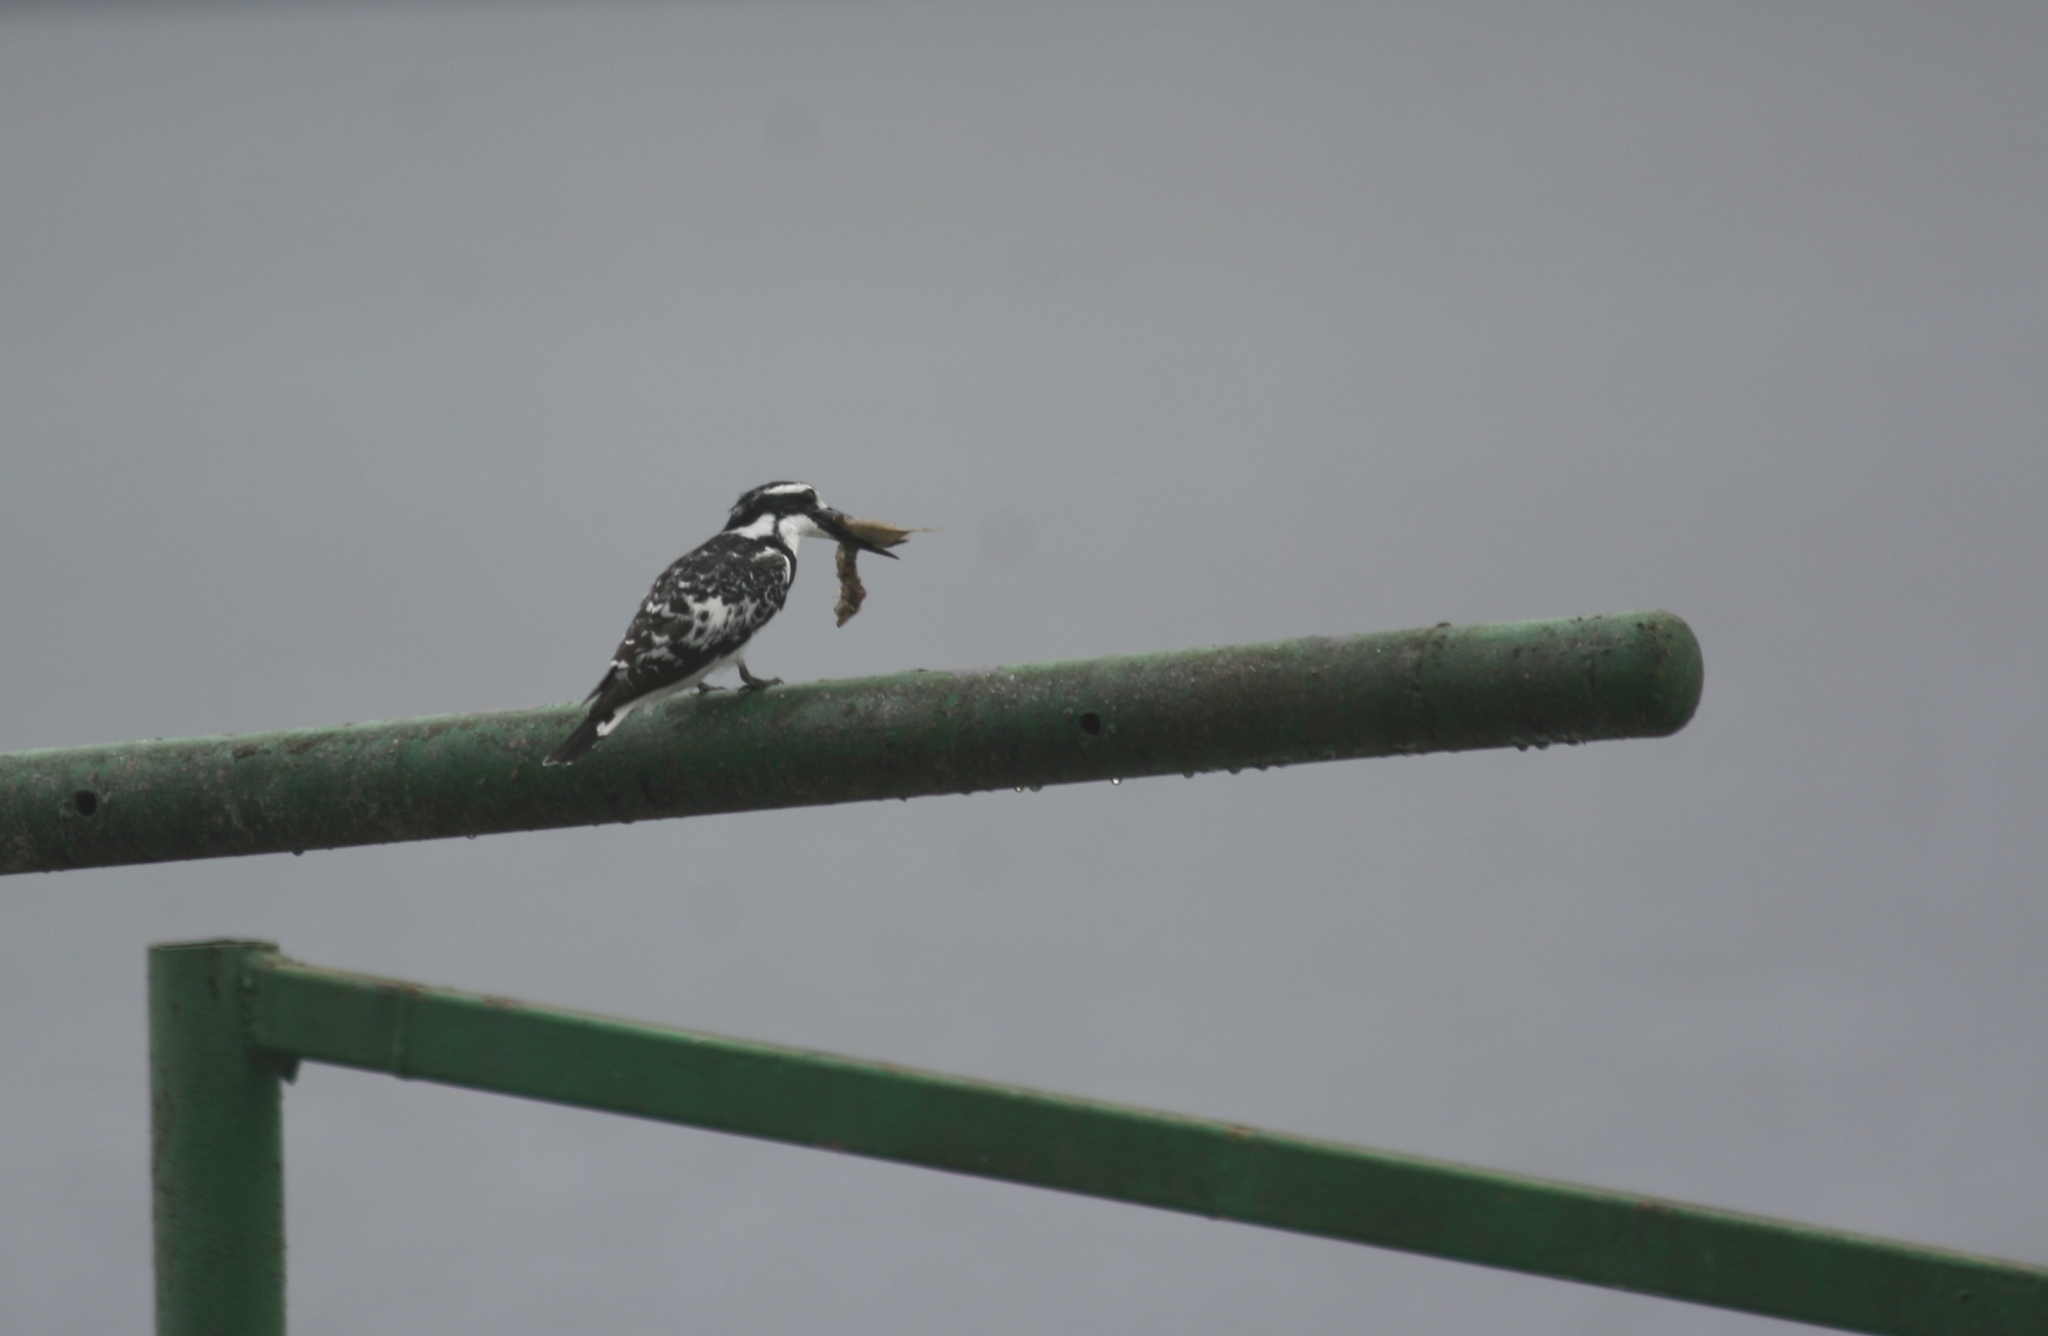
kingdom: Animalia
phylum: Chordata
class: Aves
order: Coraciiformes
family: Alcedinidae
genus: Ceryle
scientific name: Ceryle rudis
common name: Pied kingfisher
